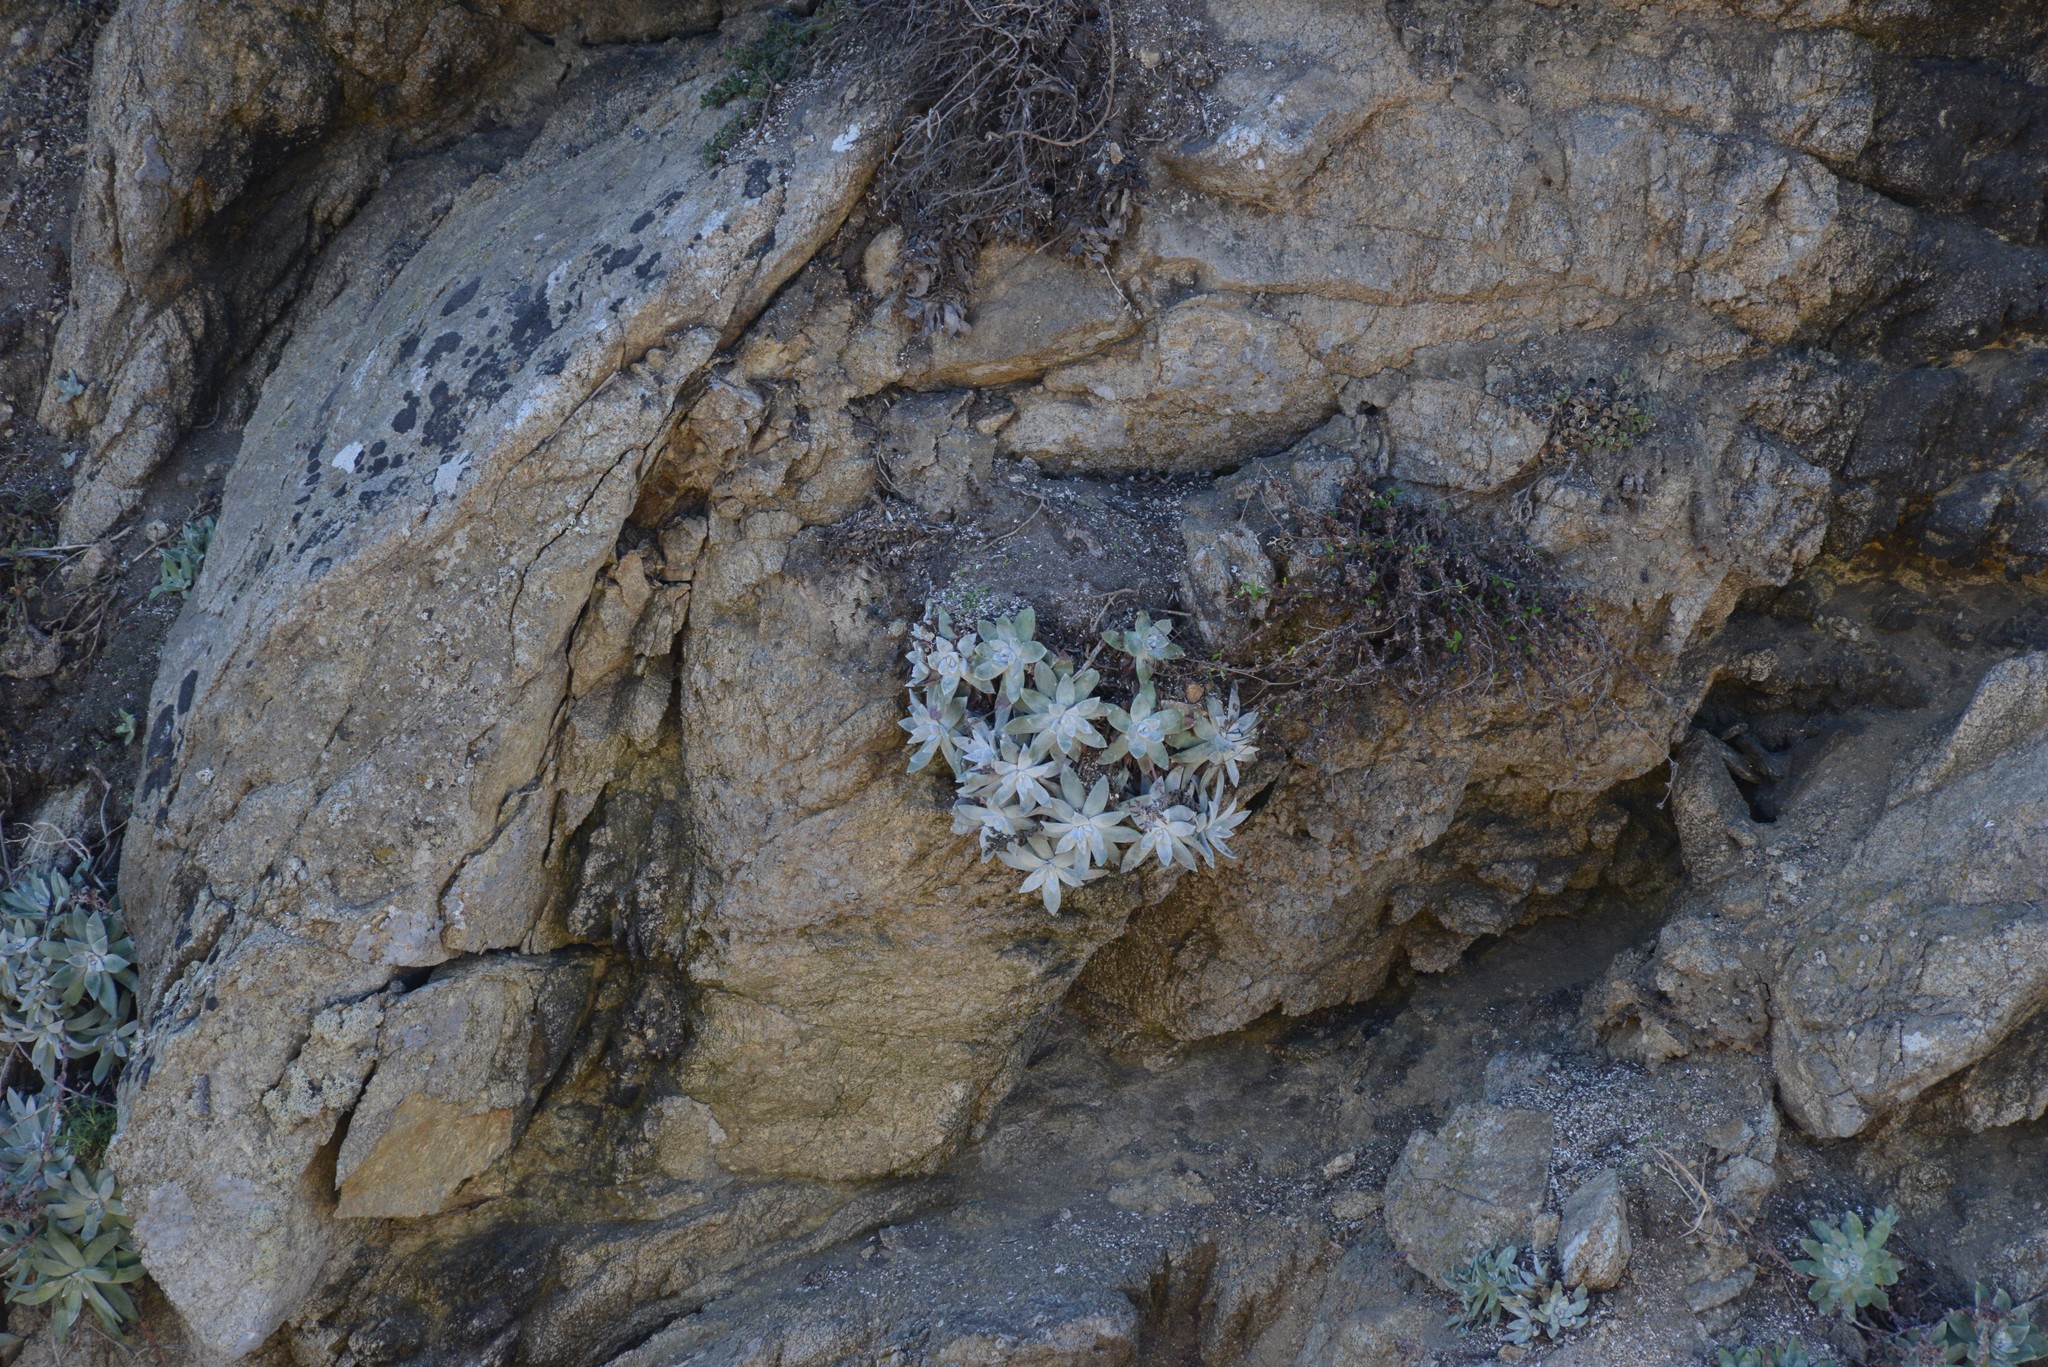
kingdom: Plantae
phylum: Tracheophyta
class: Magnoliopsida
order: Saxifragales
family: Crassulaceae
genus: Dudleya
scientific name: Dudleya farinosa
